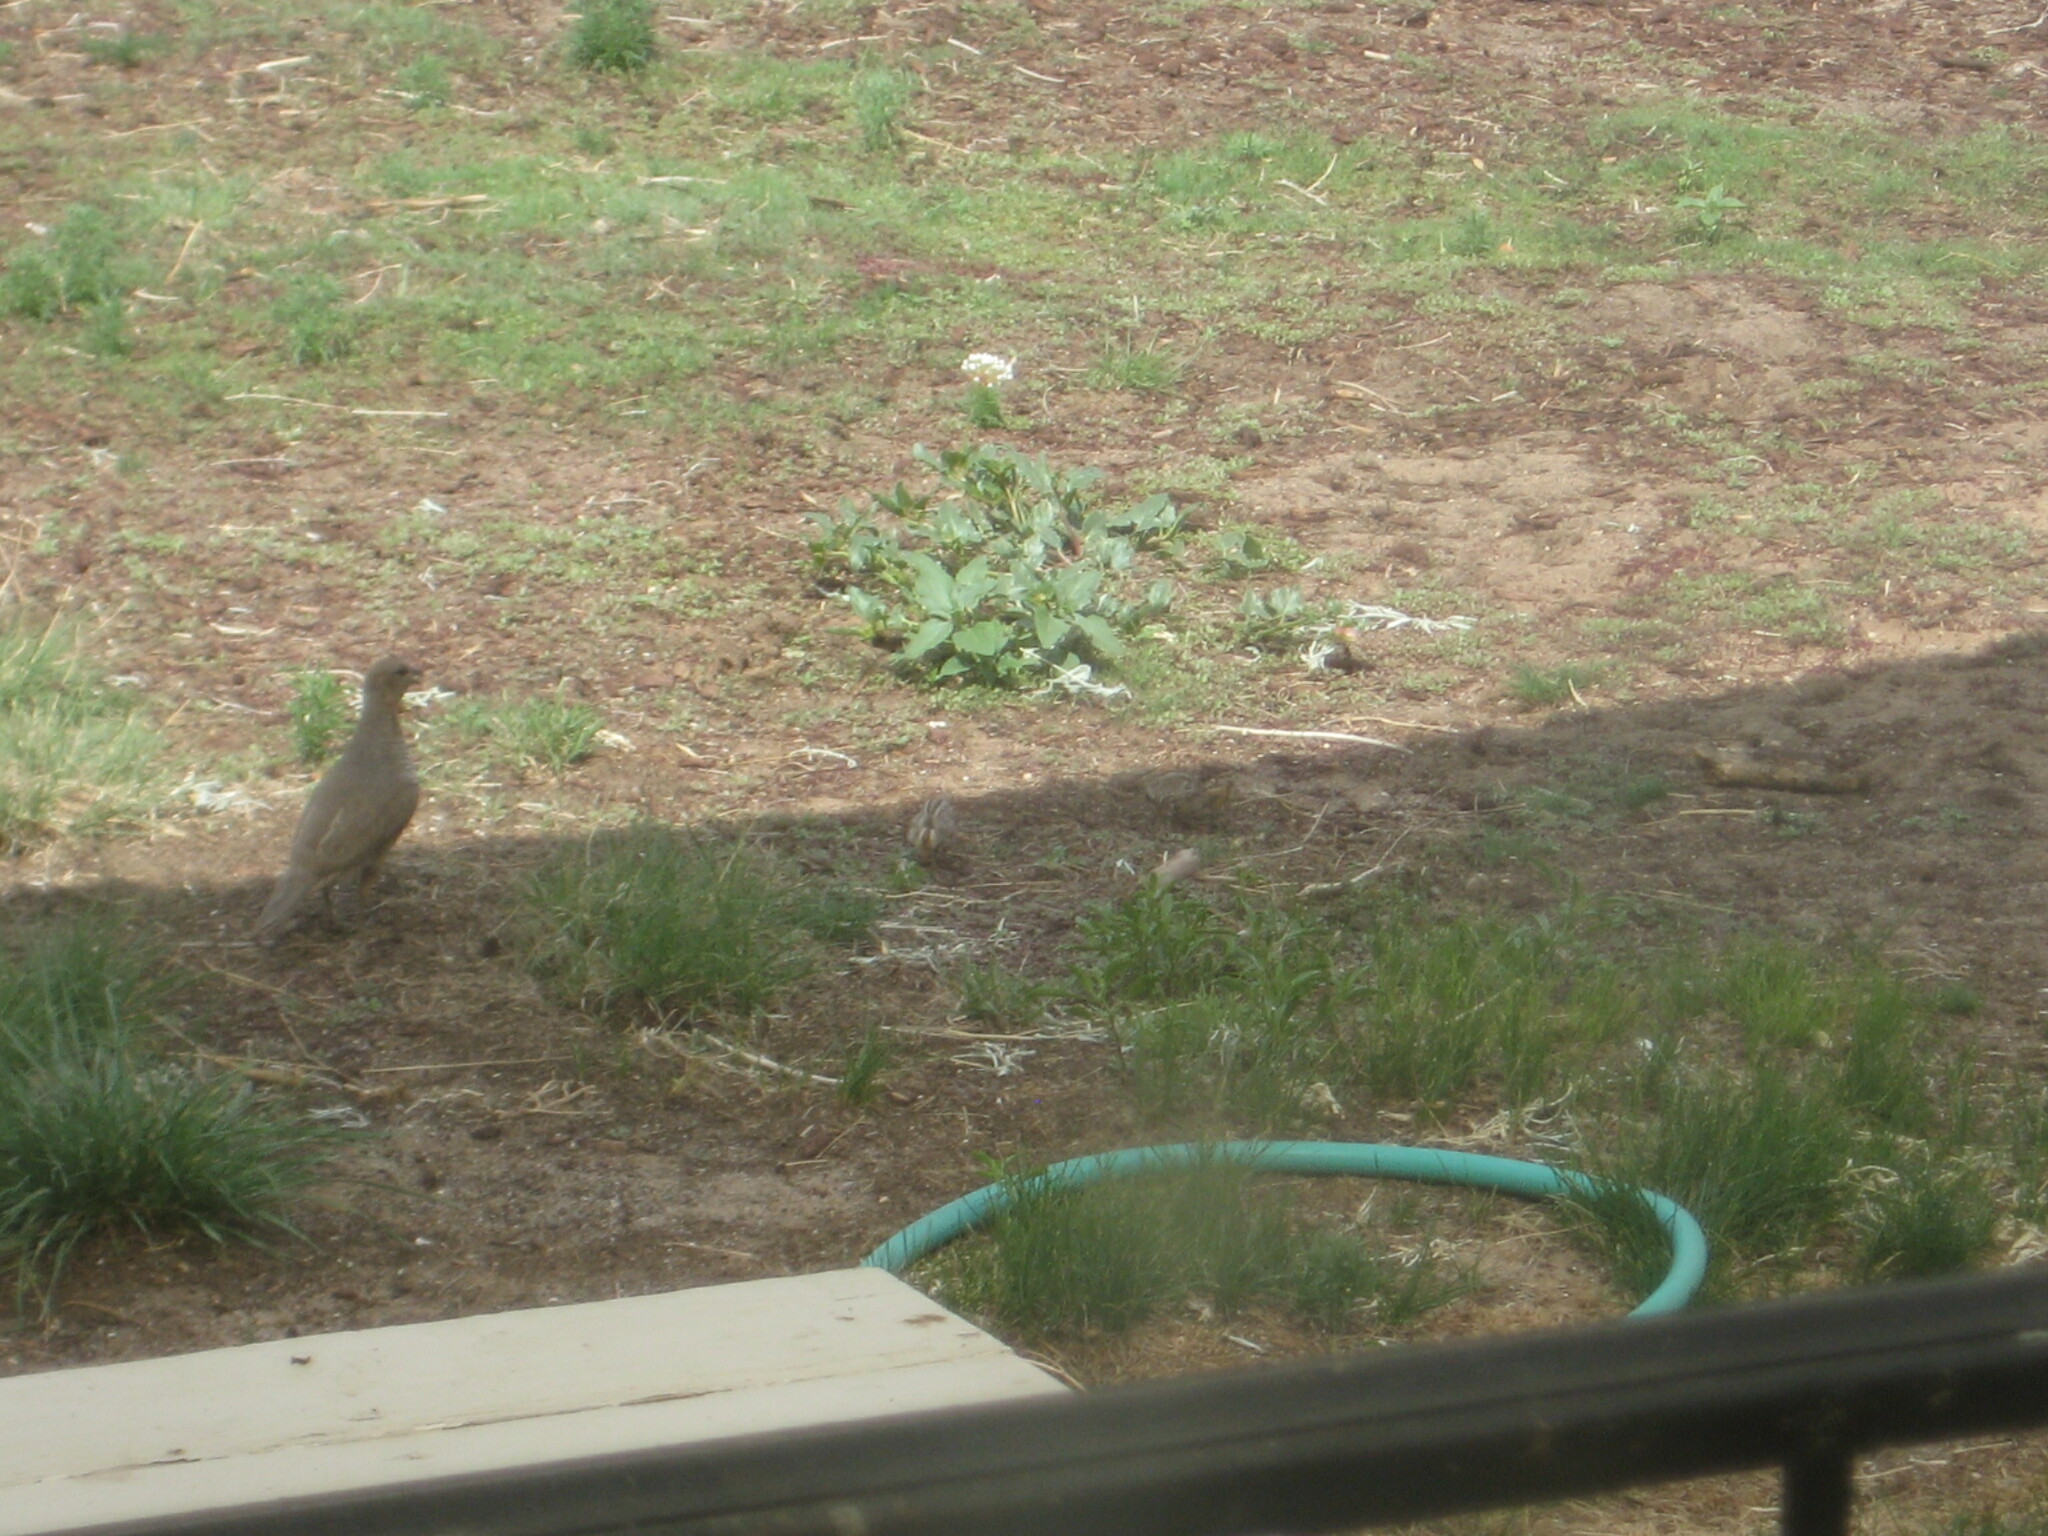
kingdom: Animalia
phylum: Chordata
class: Aves
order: Galliformes
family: Odontophoridae
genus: Callipepla
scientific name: Callipepla squamata
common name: Scaled quail
